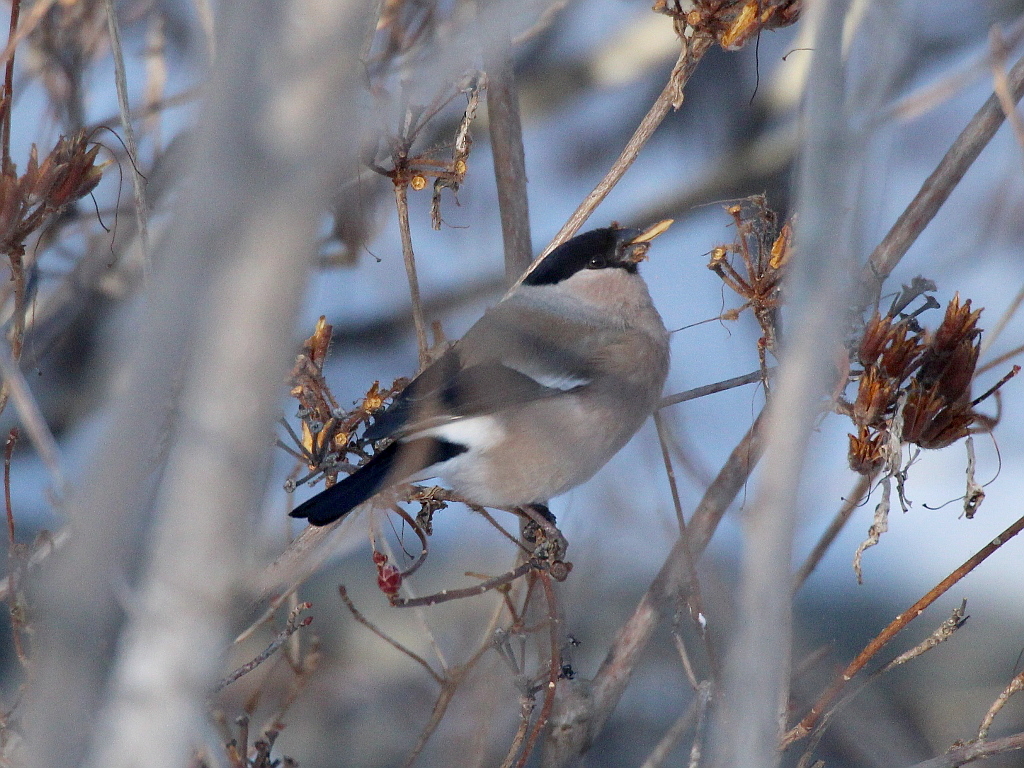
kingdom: Animalia
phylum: Chordata
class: Aves
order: Passeriformes
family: Fringillidae
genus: Pyrrhula
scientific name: Pyrrhula pyrrhula
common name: Eurasian bullfinch
